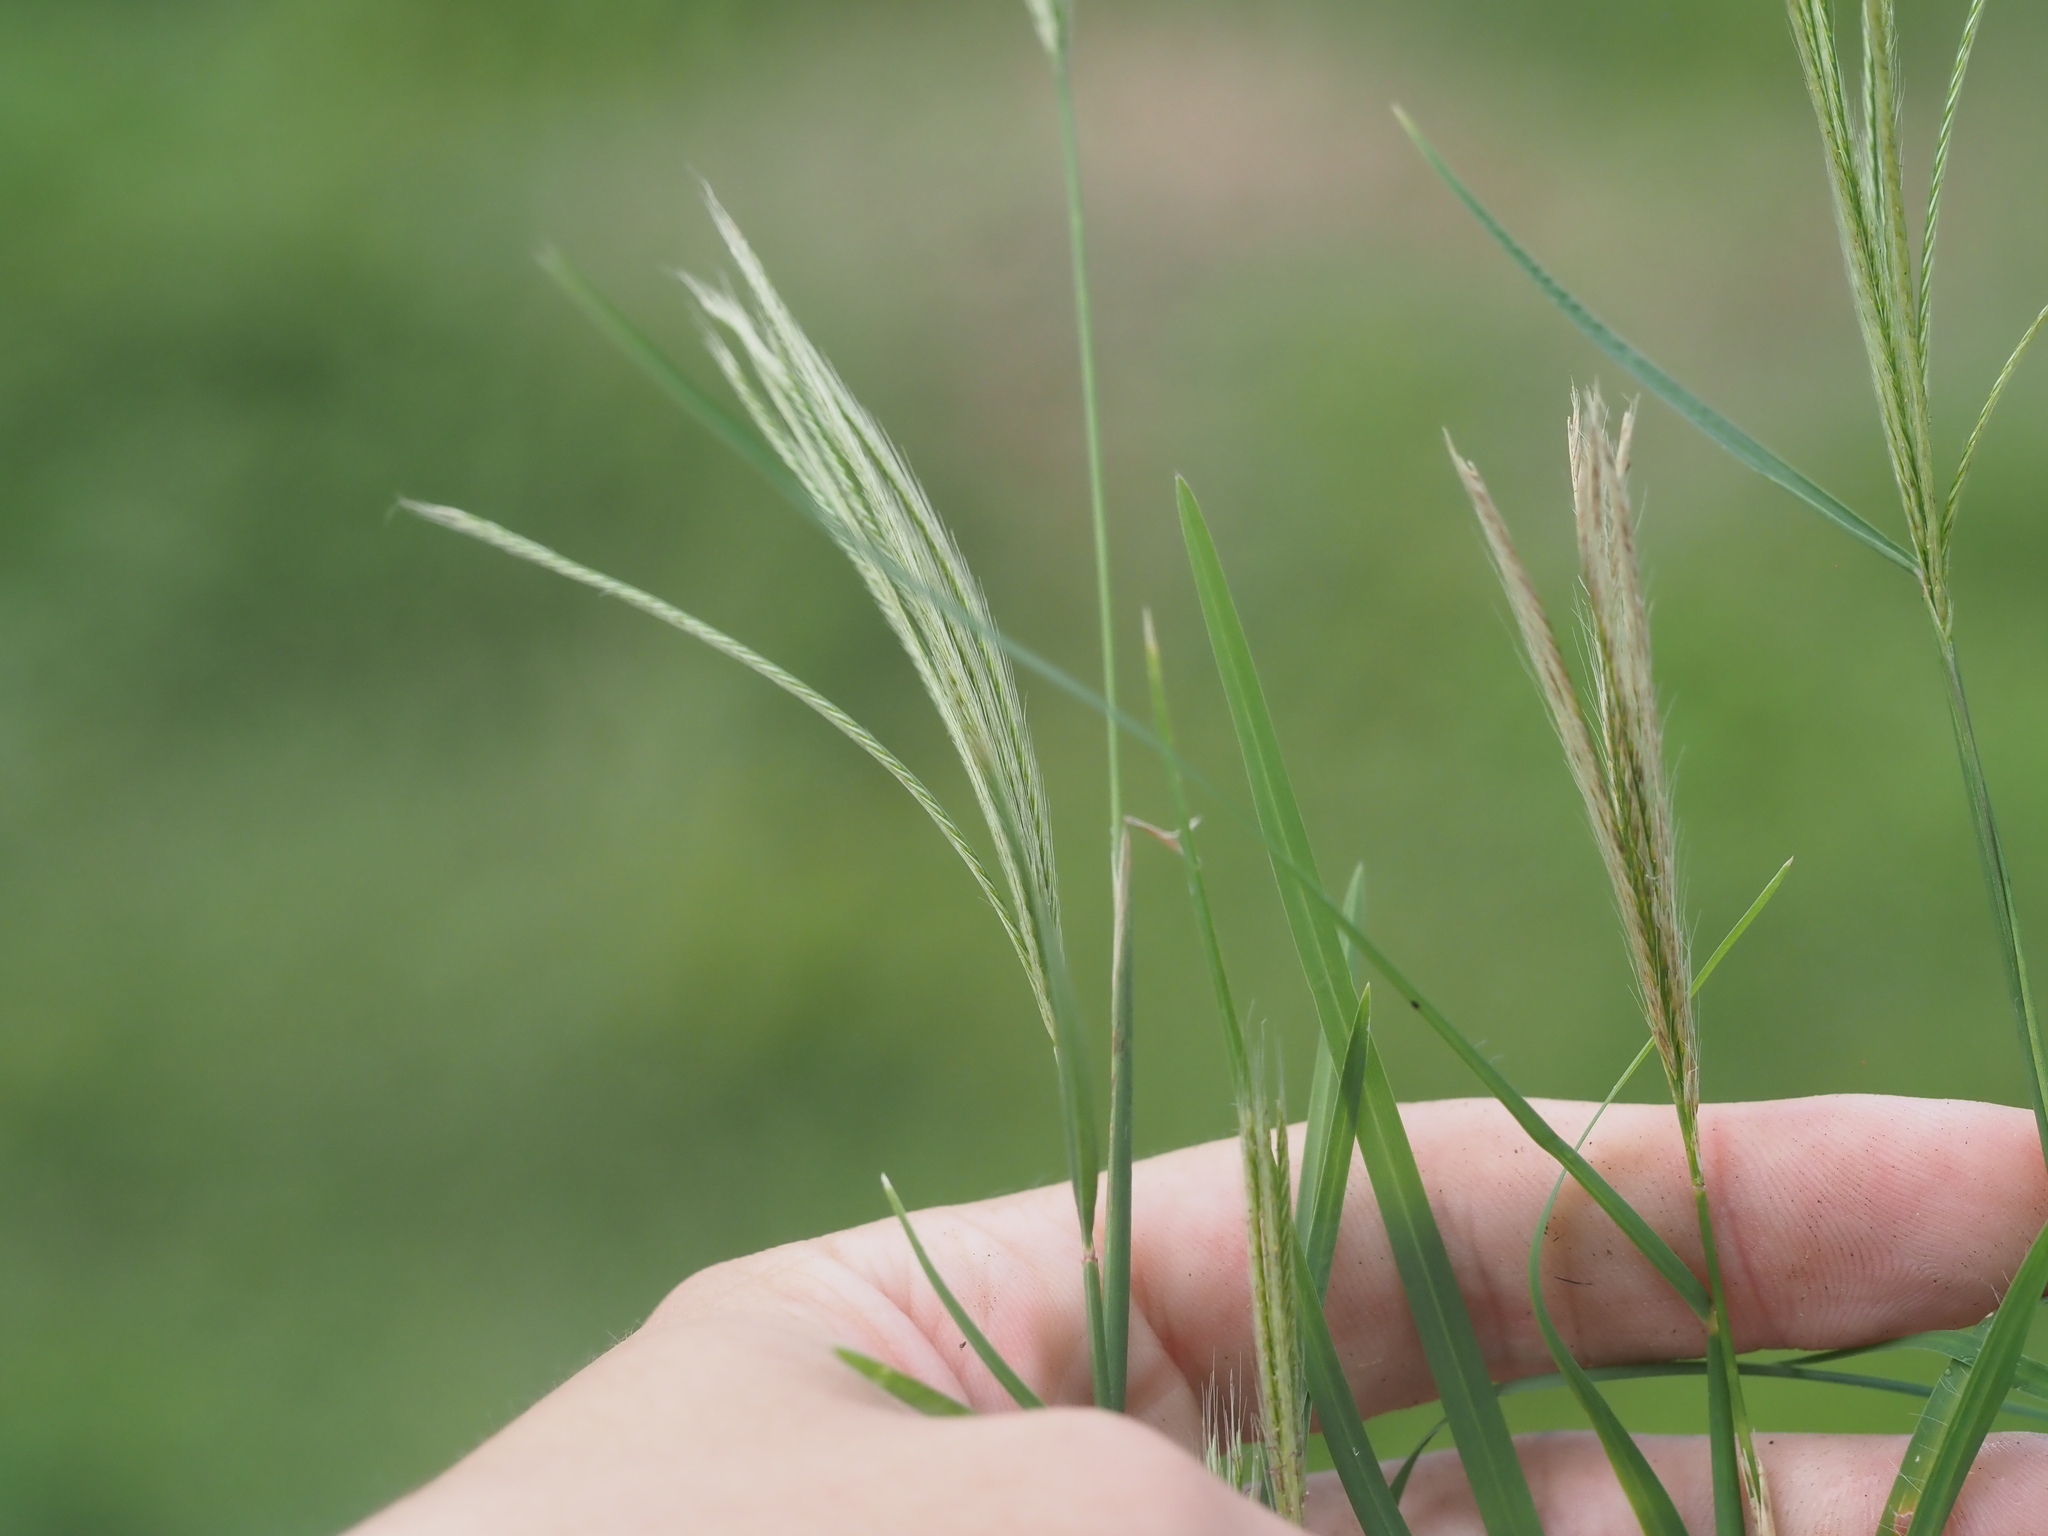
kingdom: Plantae
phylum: Tracheophyta
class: Liliopsida
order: Poales
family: Poaceae
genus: Chloris
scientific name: Chloris radiata
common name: Radiate fingergrass
